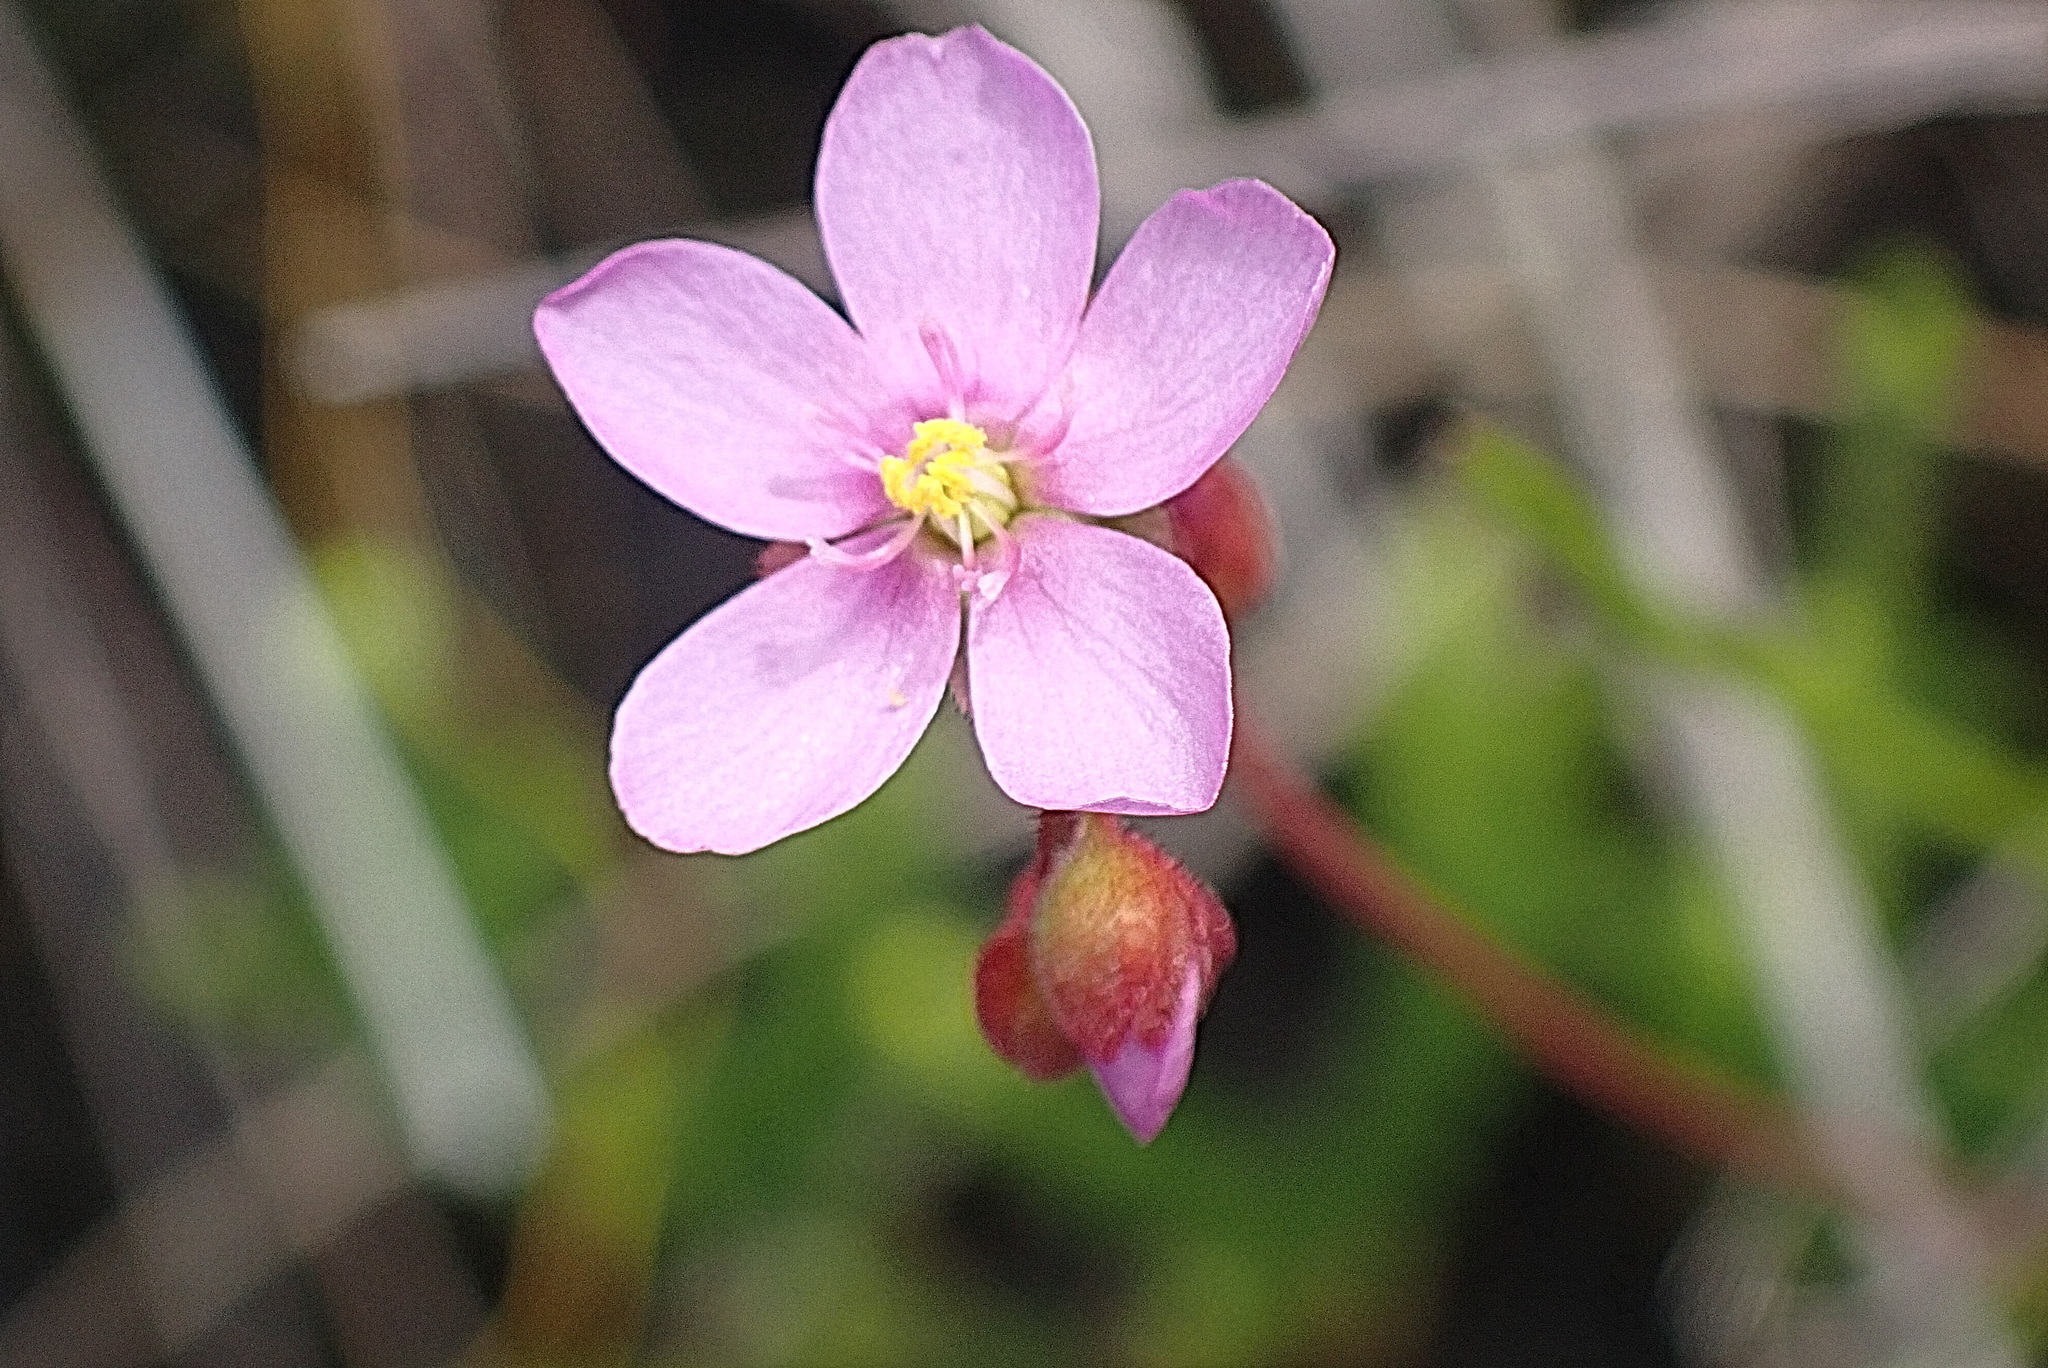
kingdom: Plantae
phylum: Tracheophyta
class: Magnoliopsida
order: Caryophyllales
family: Droseraceae
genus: Drosera
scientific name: Drosera aliciae
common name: Alice sundew
